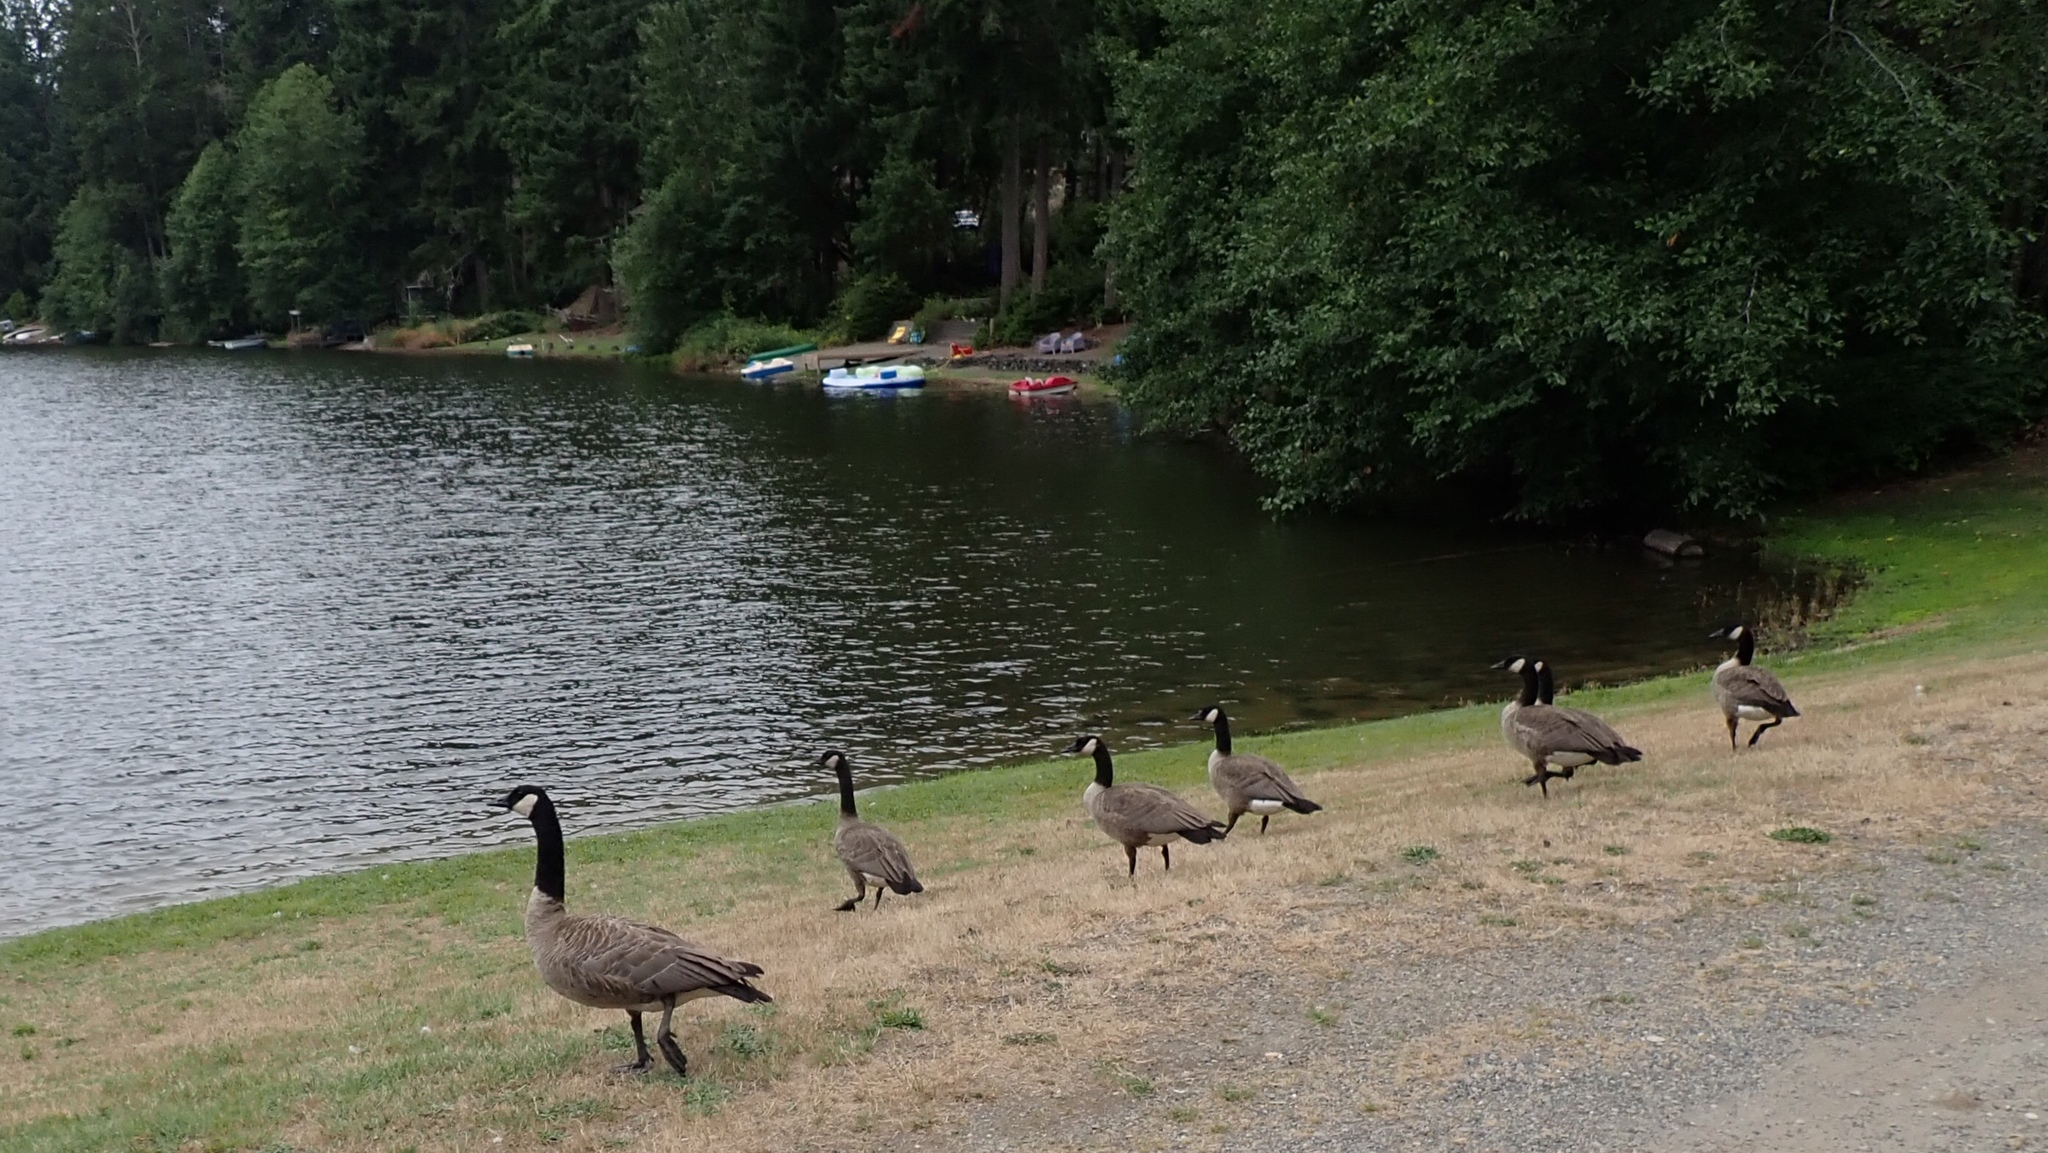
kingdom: Animalia
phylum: Chordata
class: Aves
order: Anseriformes
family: Anatidae
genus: Branta
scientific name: Branta canadensis
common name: Canada goose
